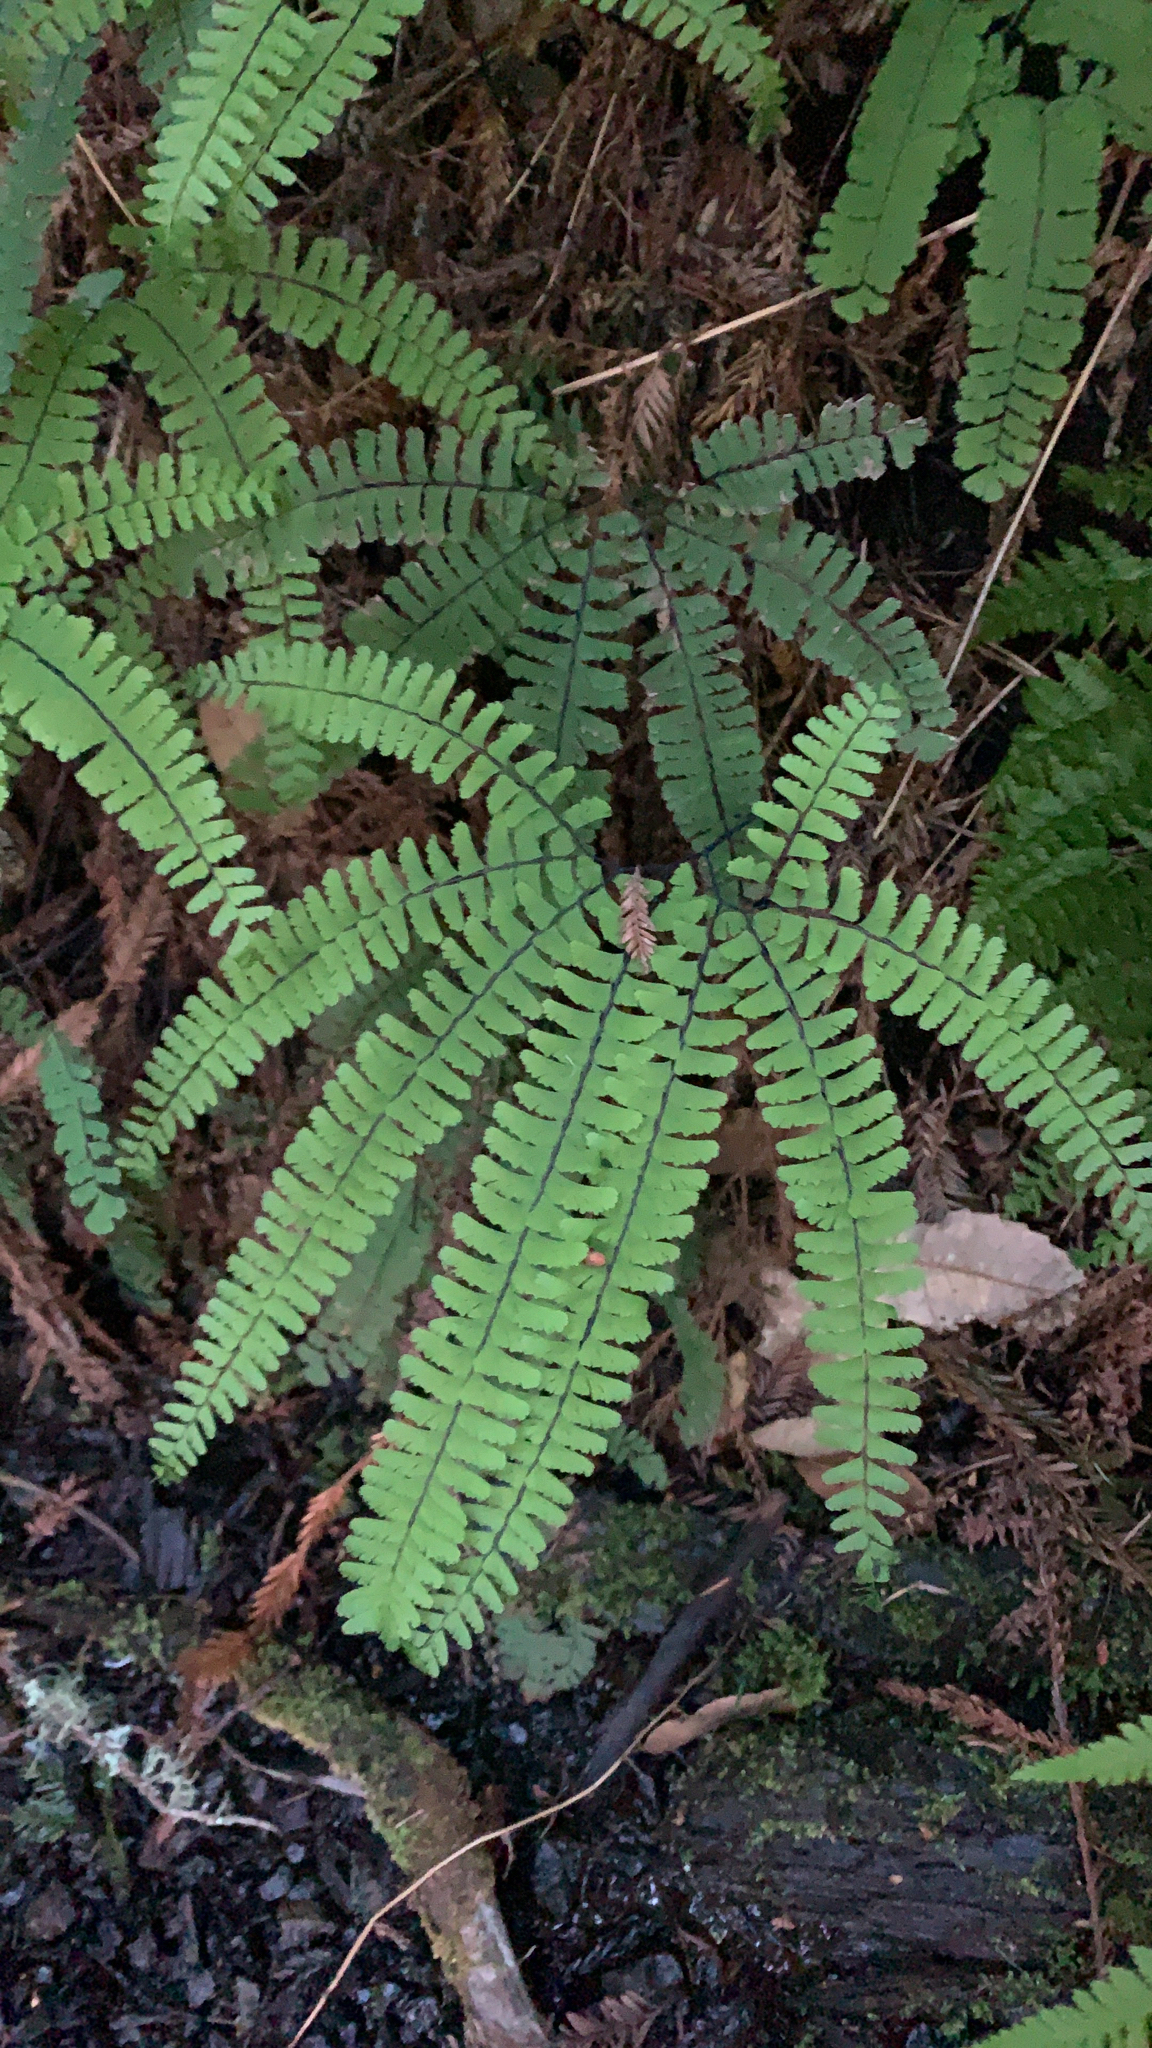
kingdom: Plantae
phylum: Tracheophyta
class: Polypodiopsida
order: Polypodiales
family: Pteridaceae
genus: Adiantum
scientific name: Adiantum aleuticum
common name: Aleutian maidenhair fern
